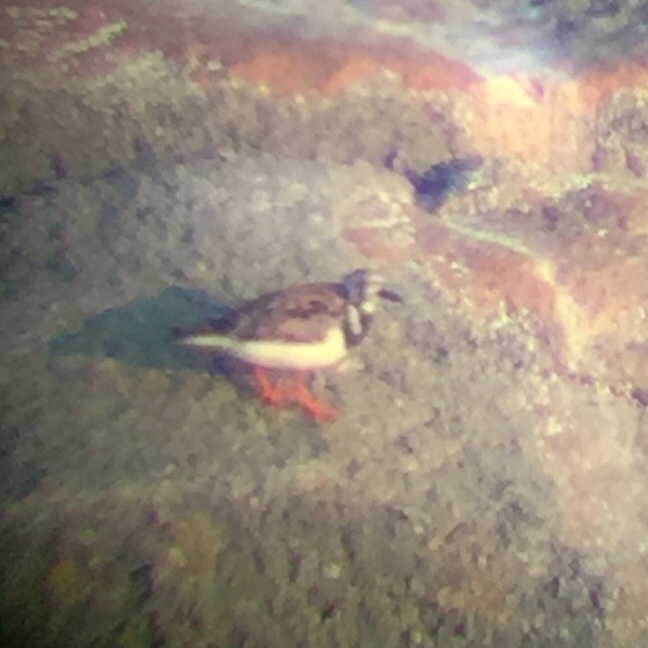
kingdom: Animalia
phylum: Chordata
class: Aves
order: Charadriiformes
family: Scolopacidae
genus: Arenaria
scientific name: Arenaria interpres
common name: Ruddy turnstone
